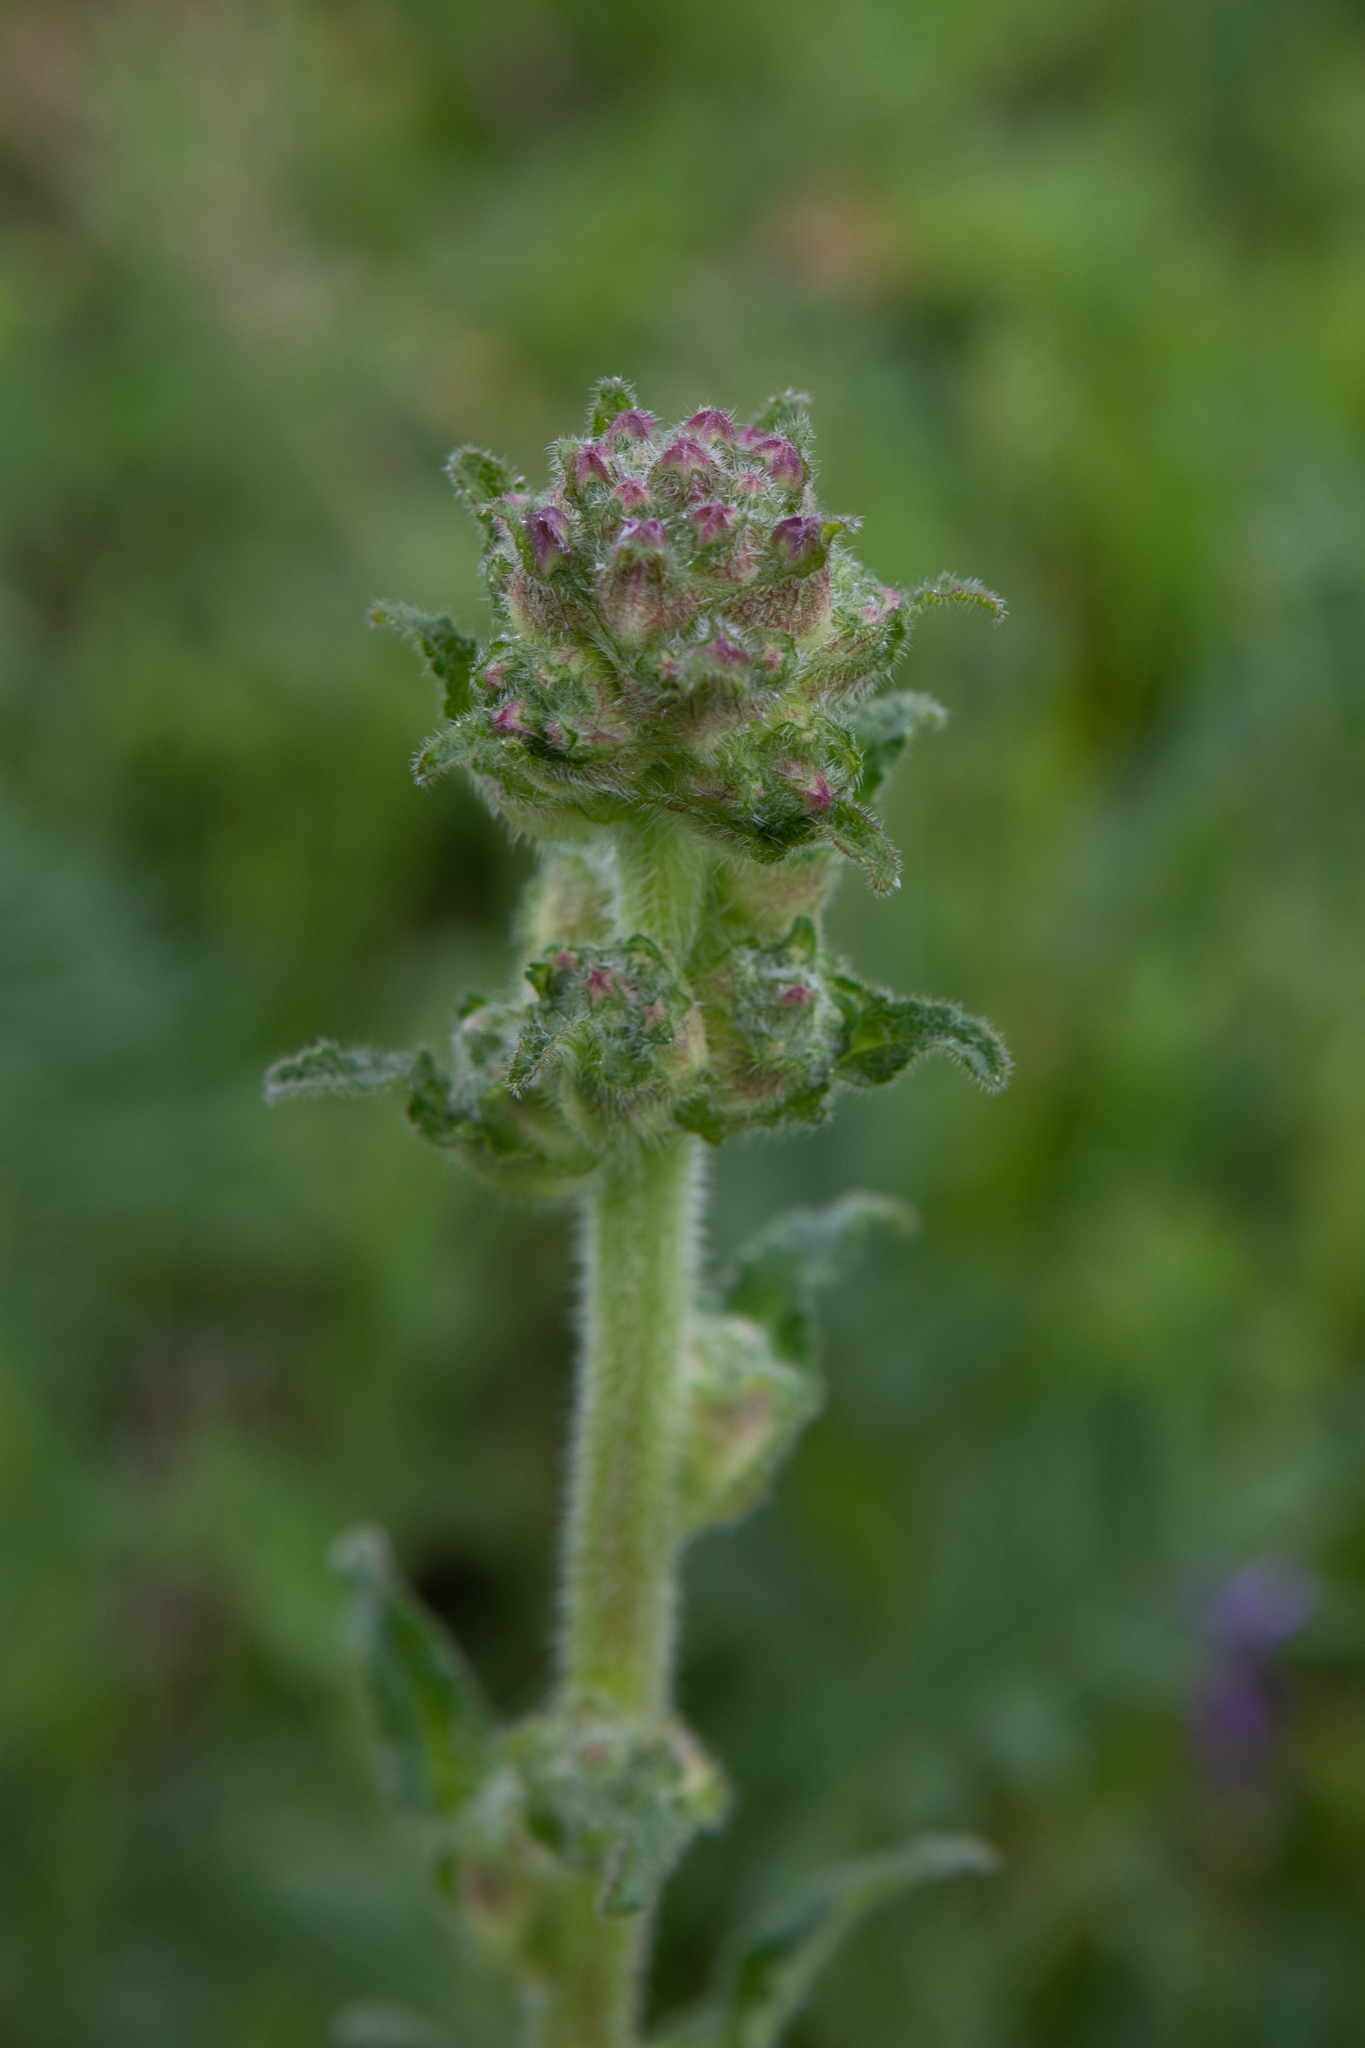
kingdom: Plantae
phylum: Tracheophyta
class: Magnoliopsida
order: Asterales
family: Campanulaceae
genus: Campanula
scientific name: Campanula cervicaria
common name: Bristly bellflower
